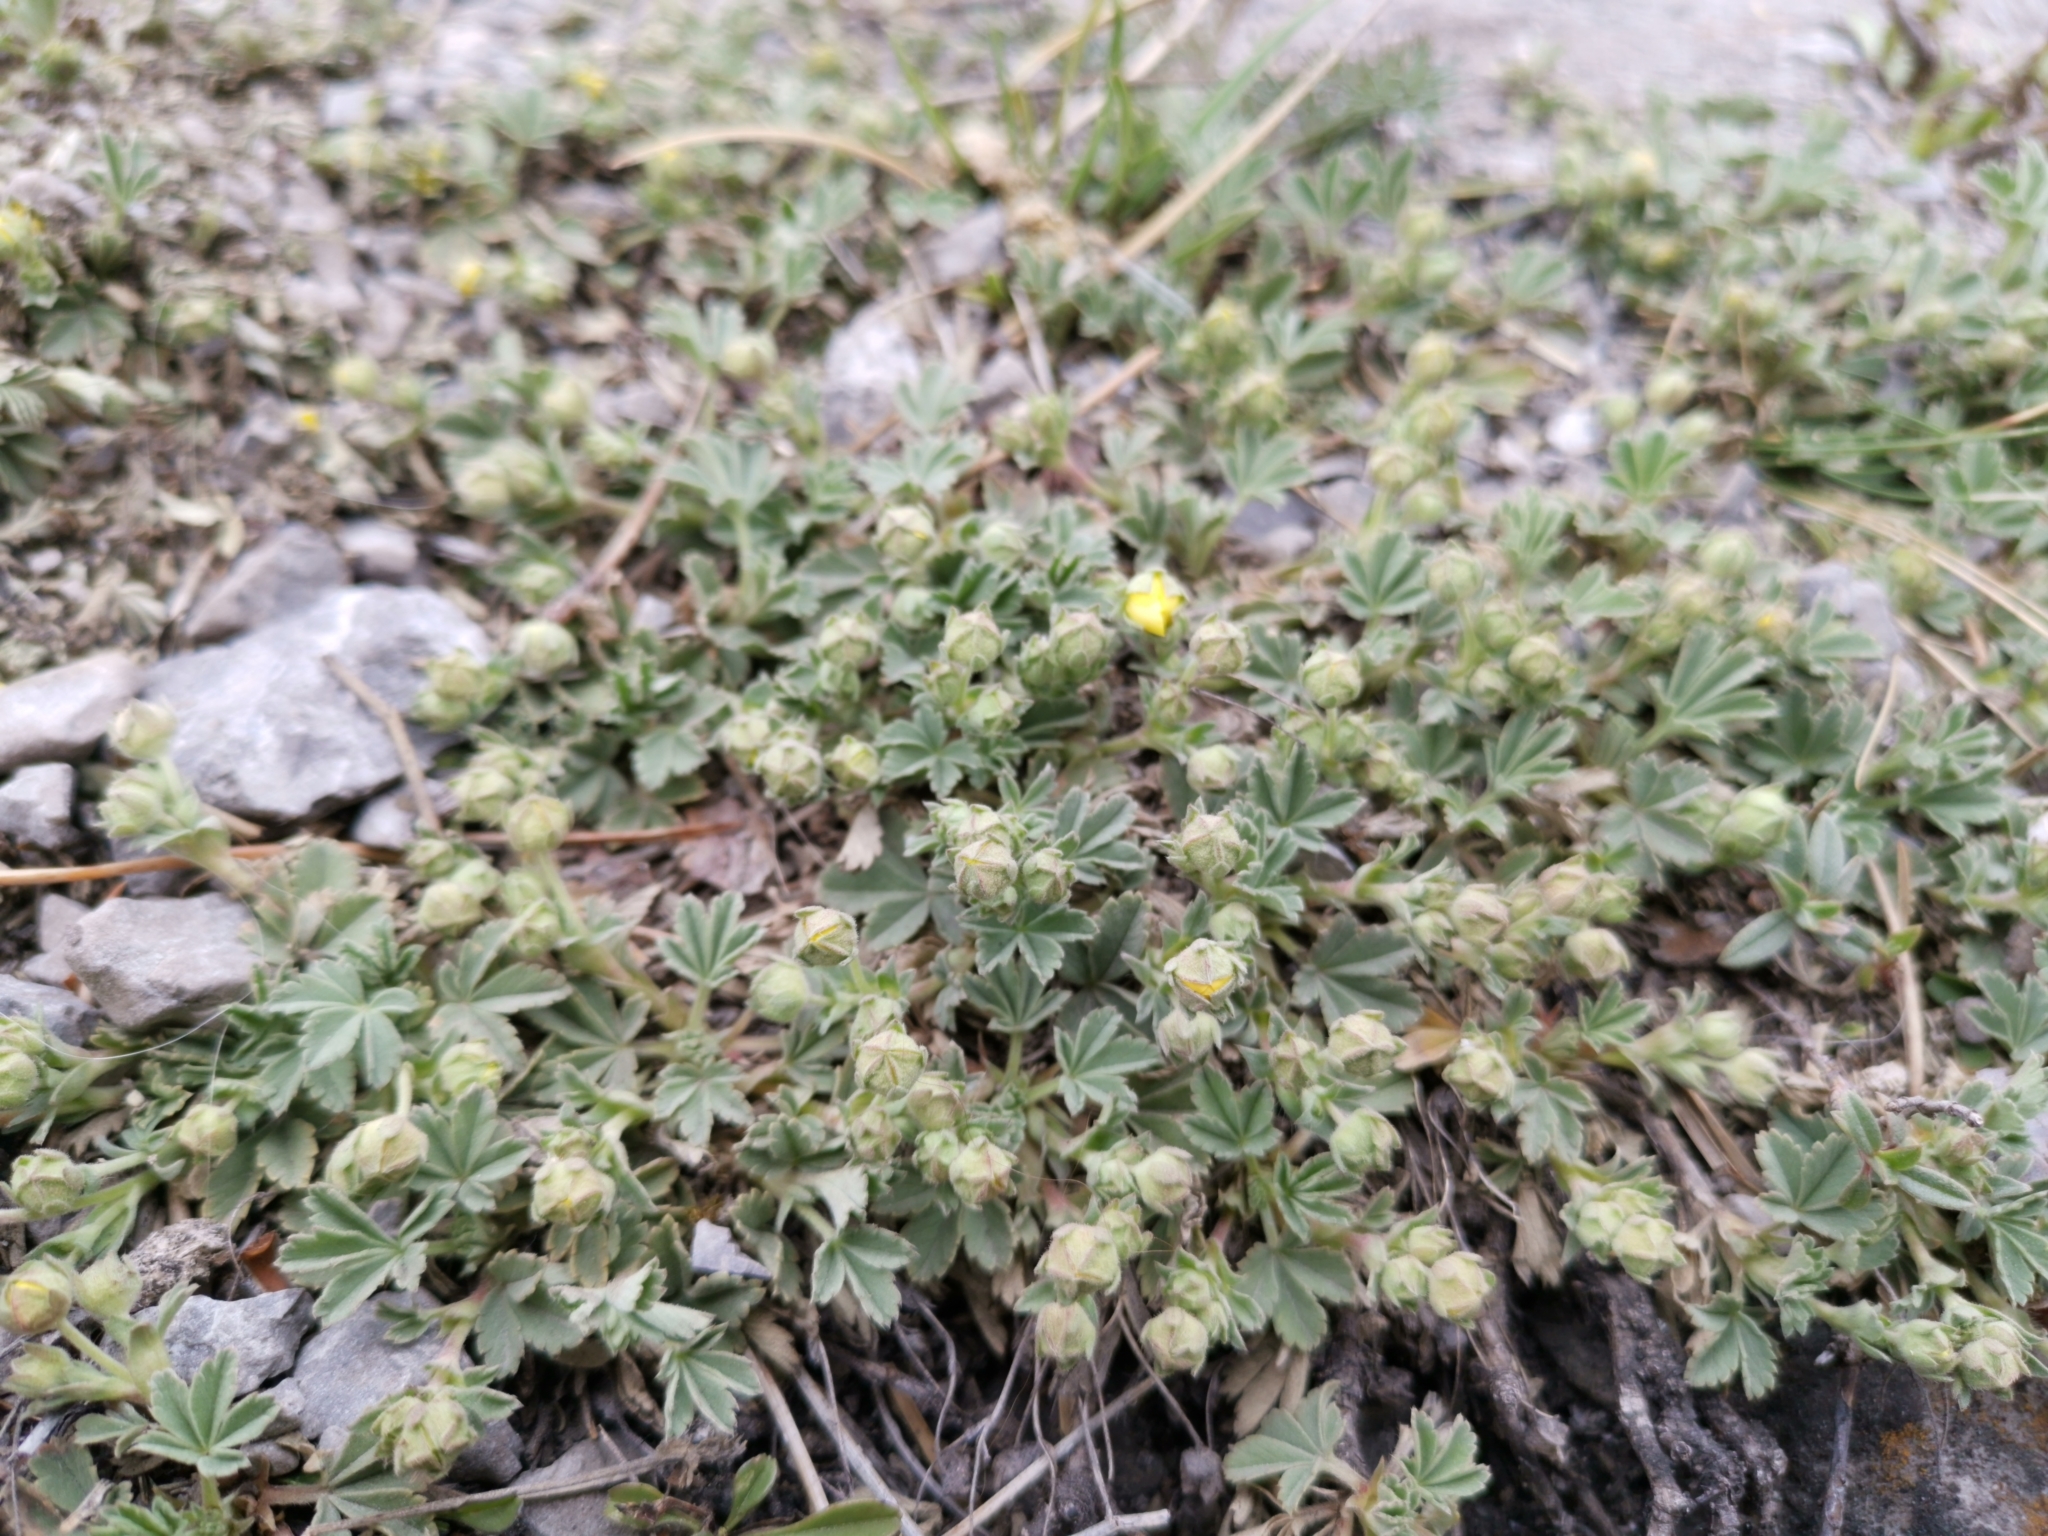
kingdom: Plantae
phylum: Tracheophyta
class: Magnoliopsida
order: Rosales
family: Rosaceae
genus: Potentilla
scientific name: Potentilla incana
